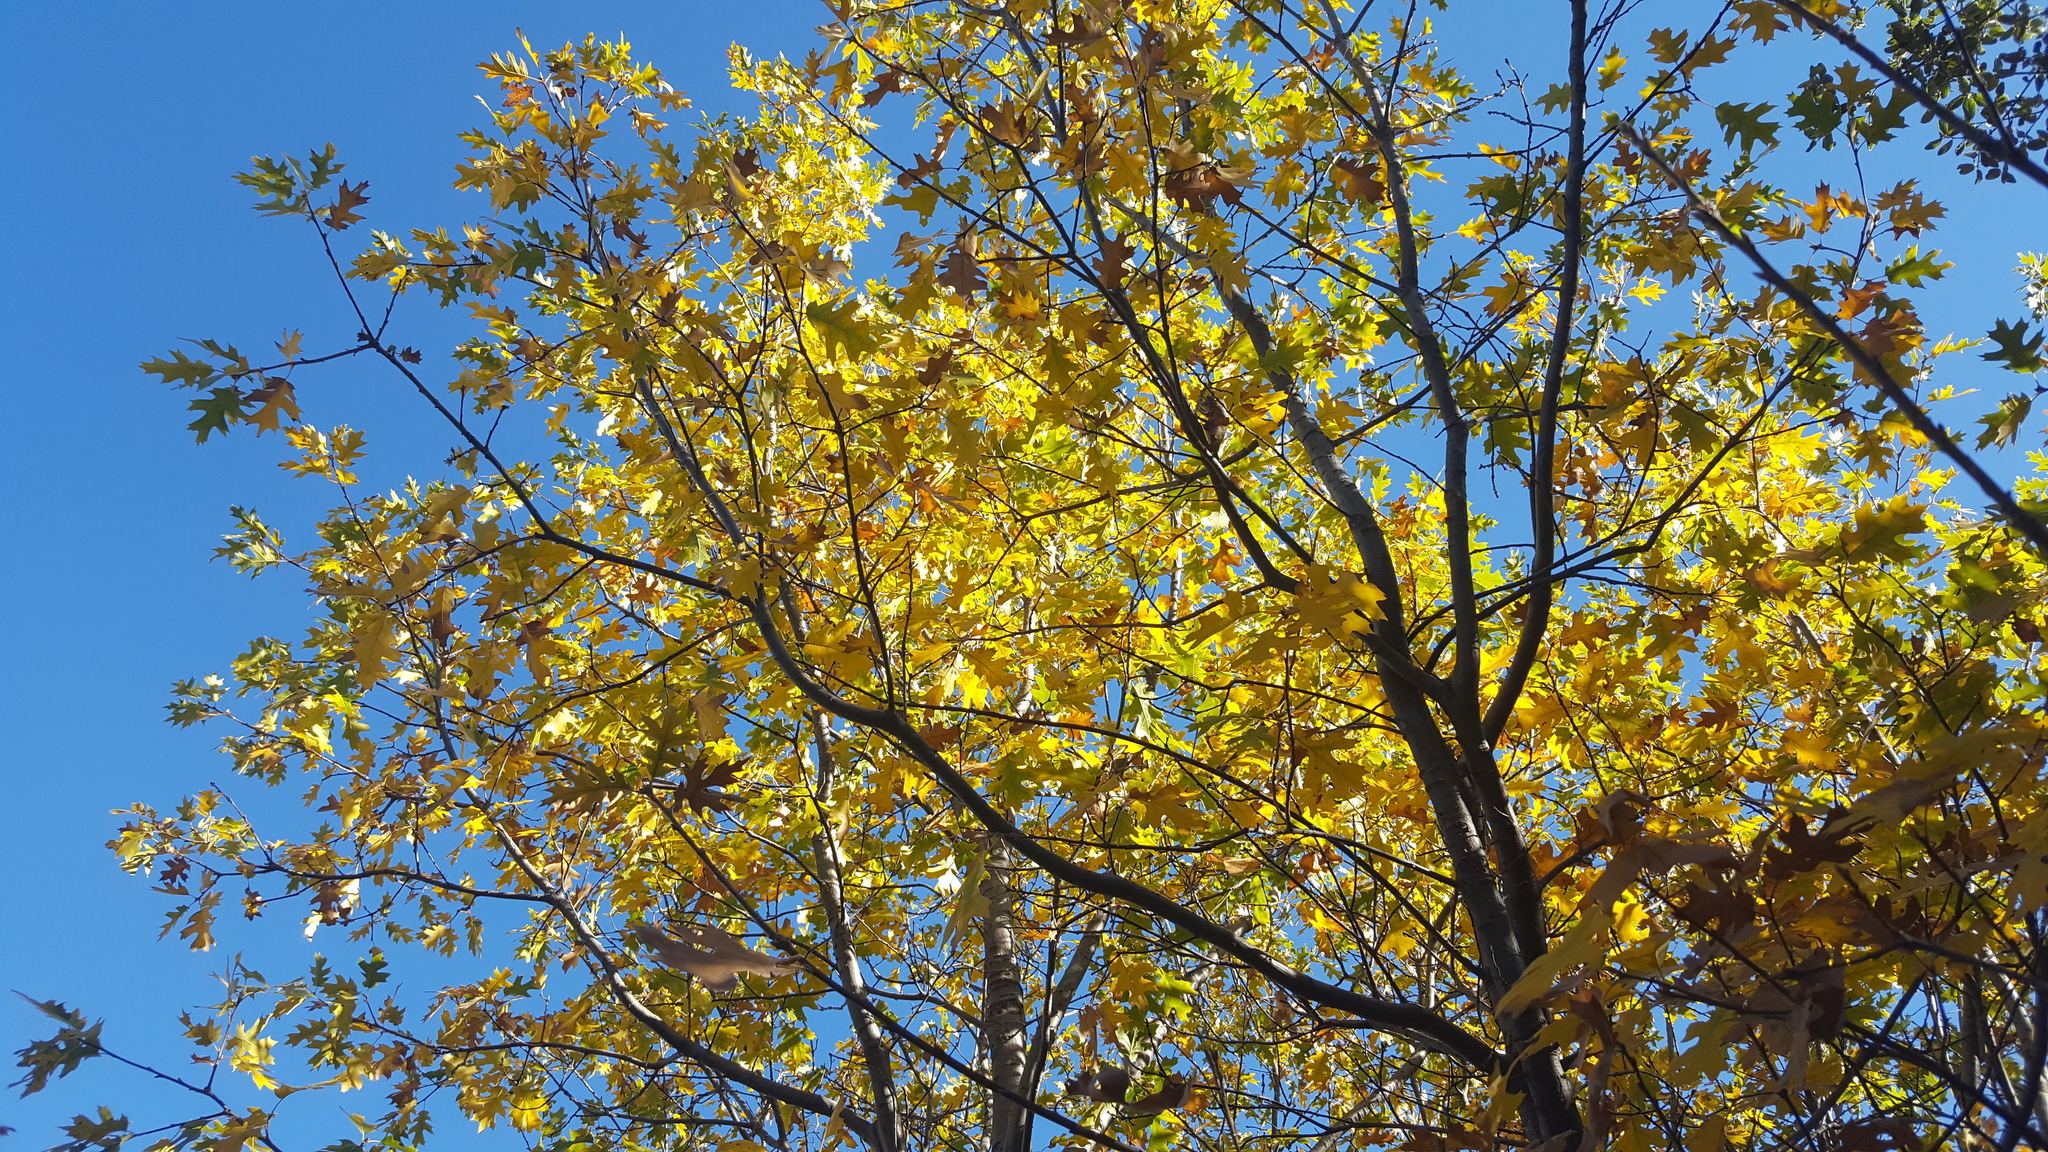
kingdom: Plantae
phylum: Tracheophyta
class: Magnoliopsida
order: Fagales
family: Fagaceae
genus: Quercus
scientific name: Quercus kelloggii
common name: California black oak
